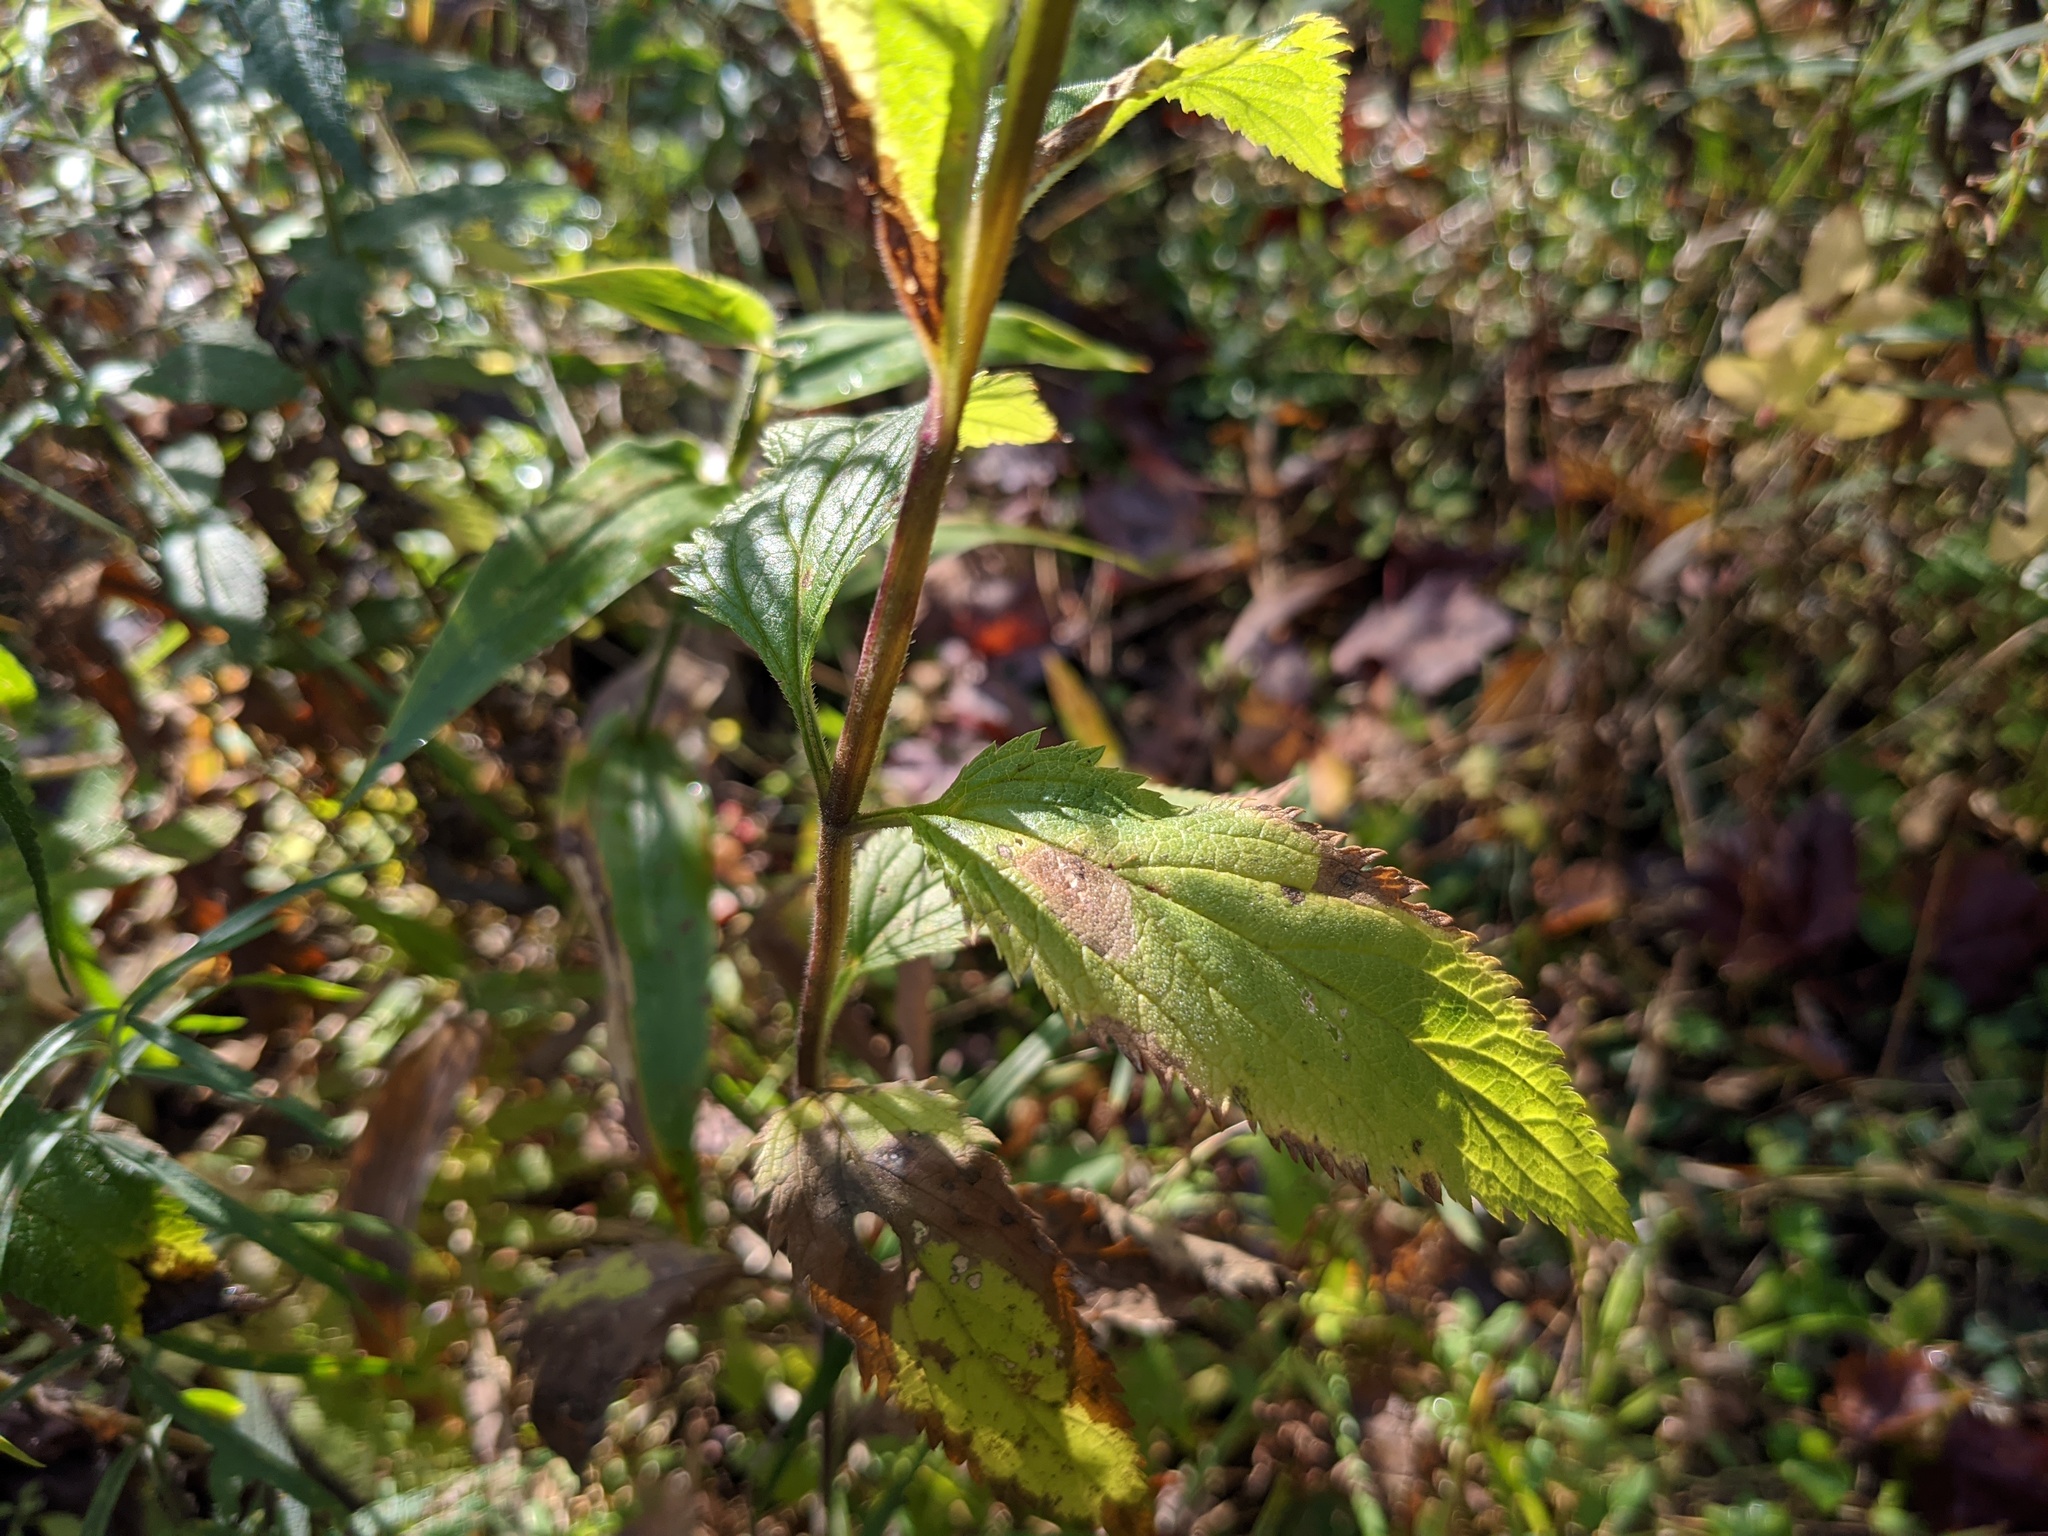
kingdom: Plantae
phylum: Tracheophyta
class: Magnoliopsida
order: Lamiales
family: Verbenaceae
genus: Verbena
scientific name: Verbena hastata
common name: American blue vervain
